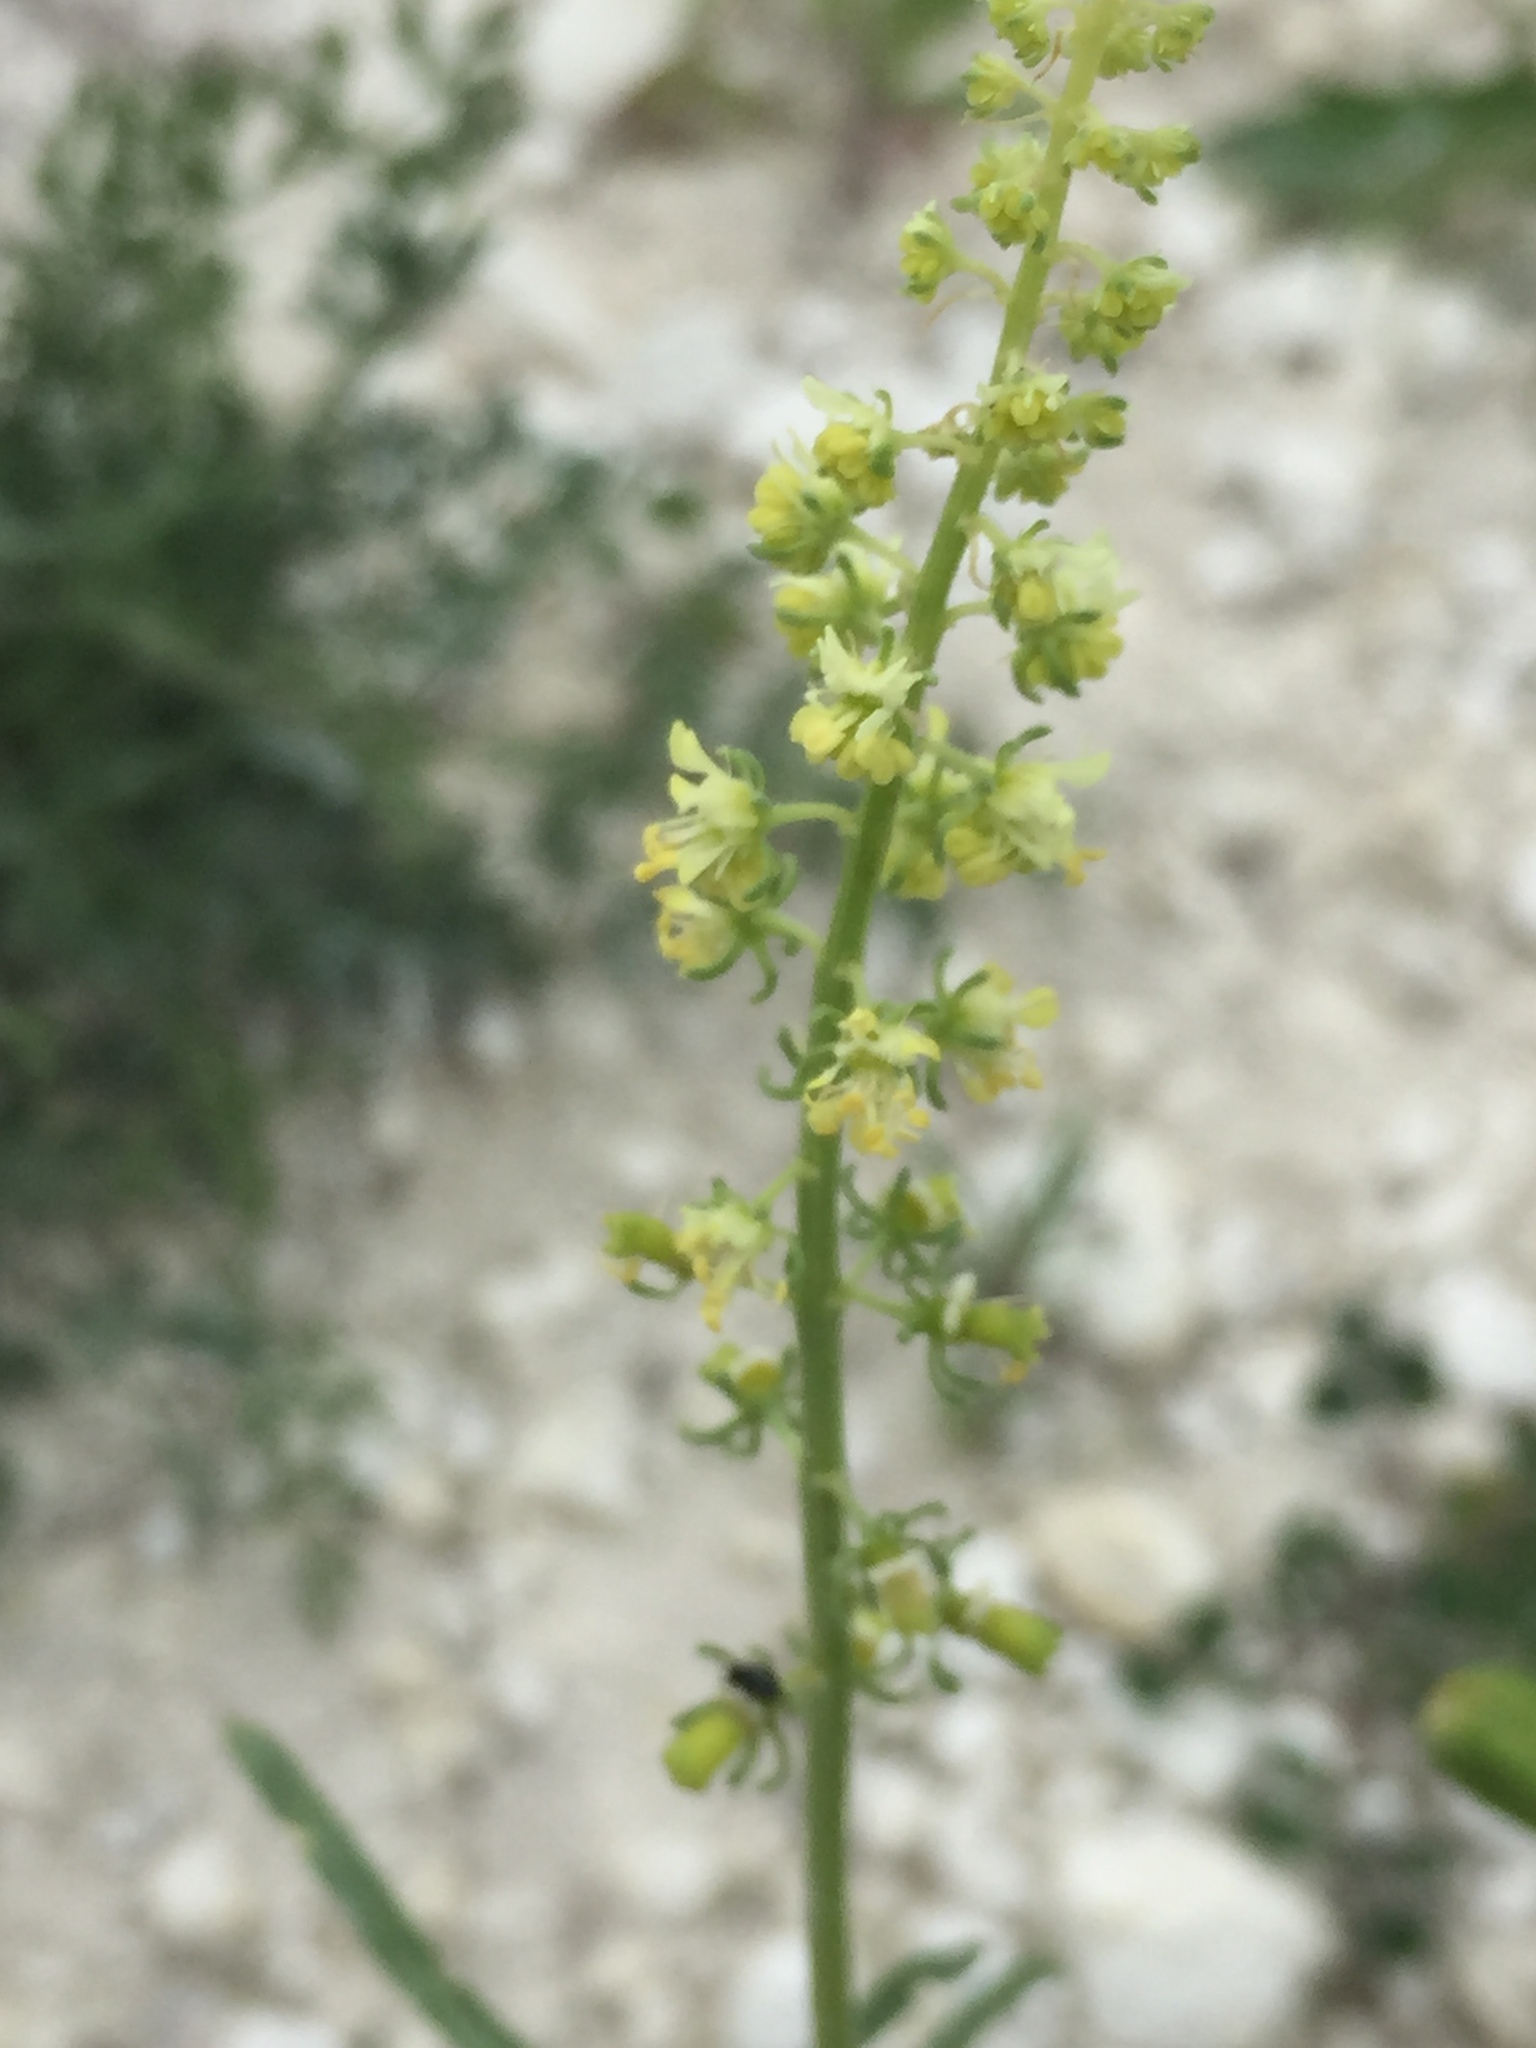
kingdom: Plantae
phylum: Tracheophyta
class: Magnoliopsida
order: Brassicales
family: Resedaceae
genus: Reseda
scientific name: Reseda lutea
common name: Wild mignonette
